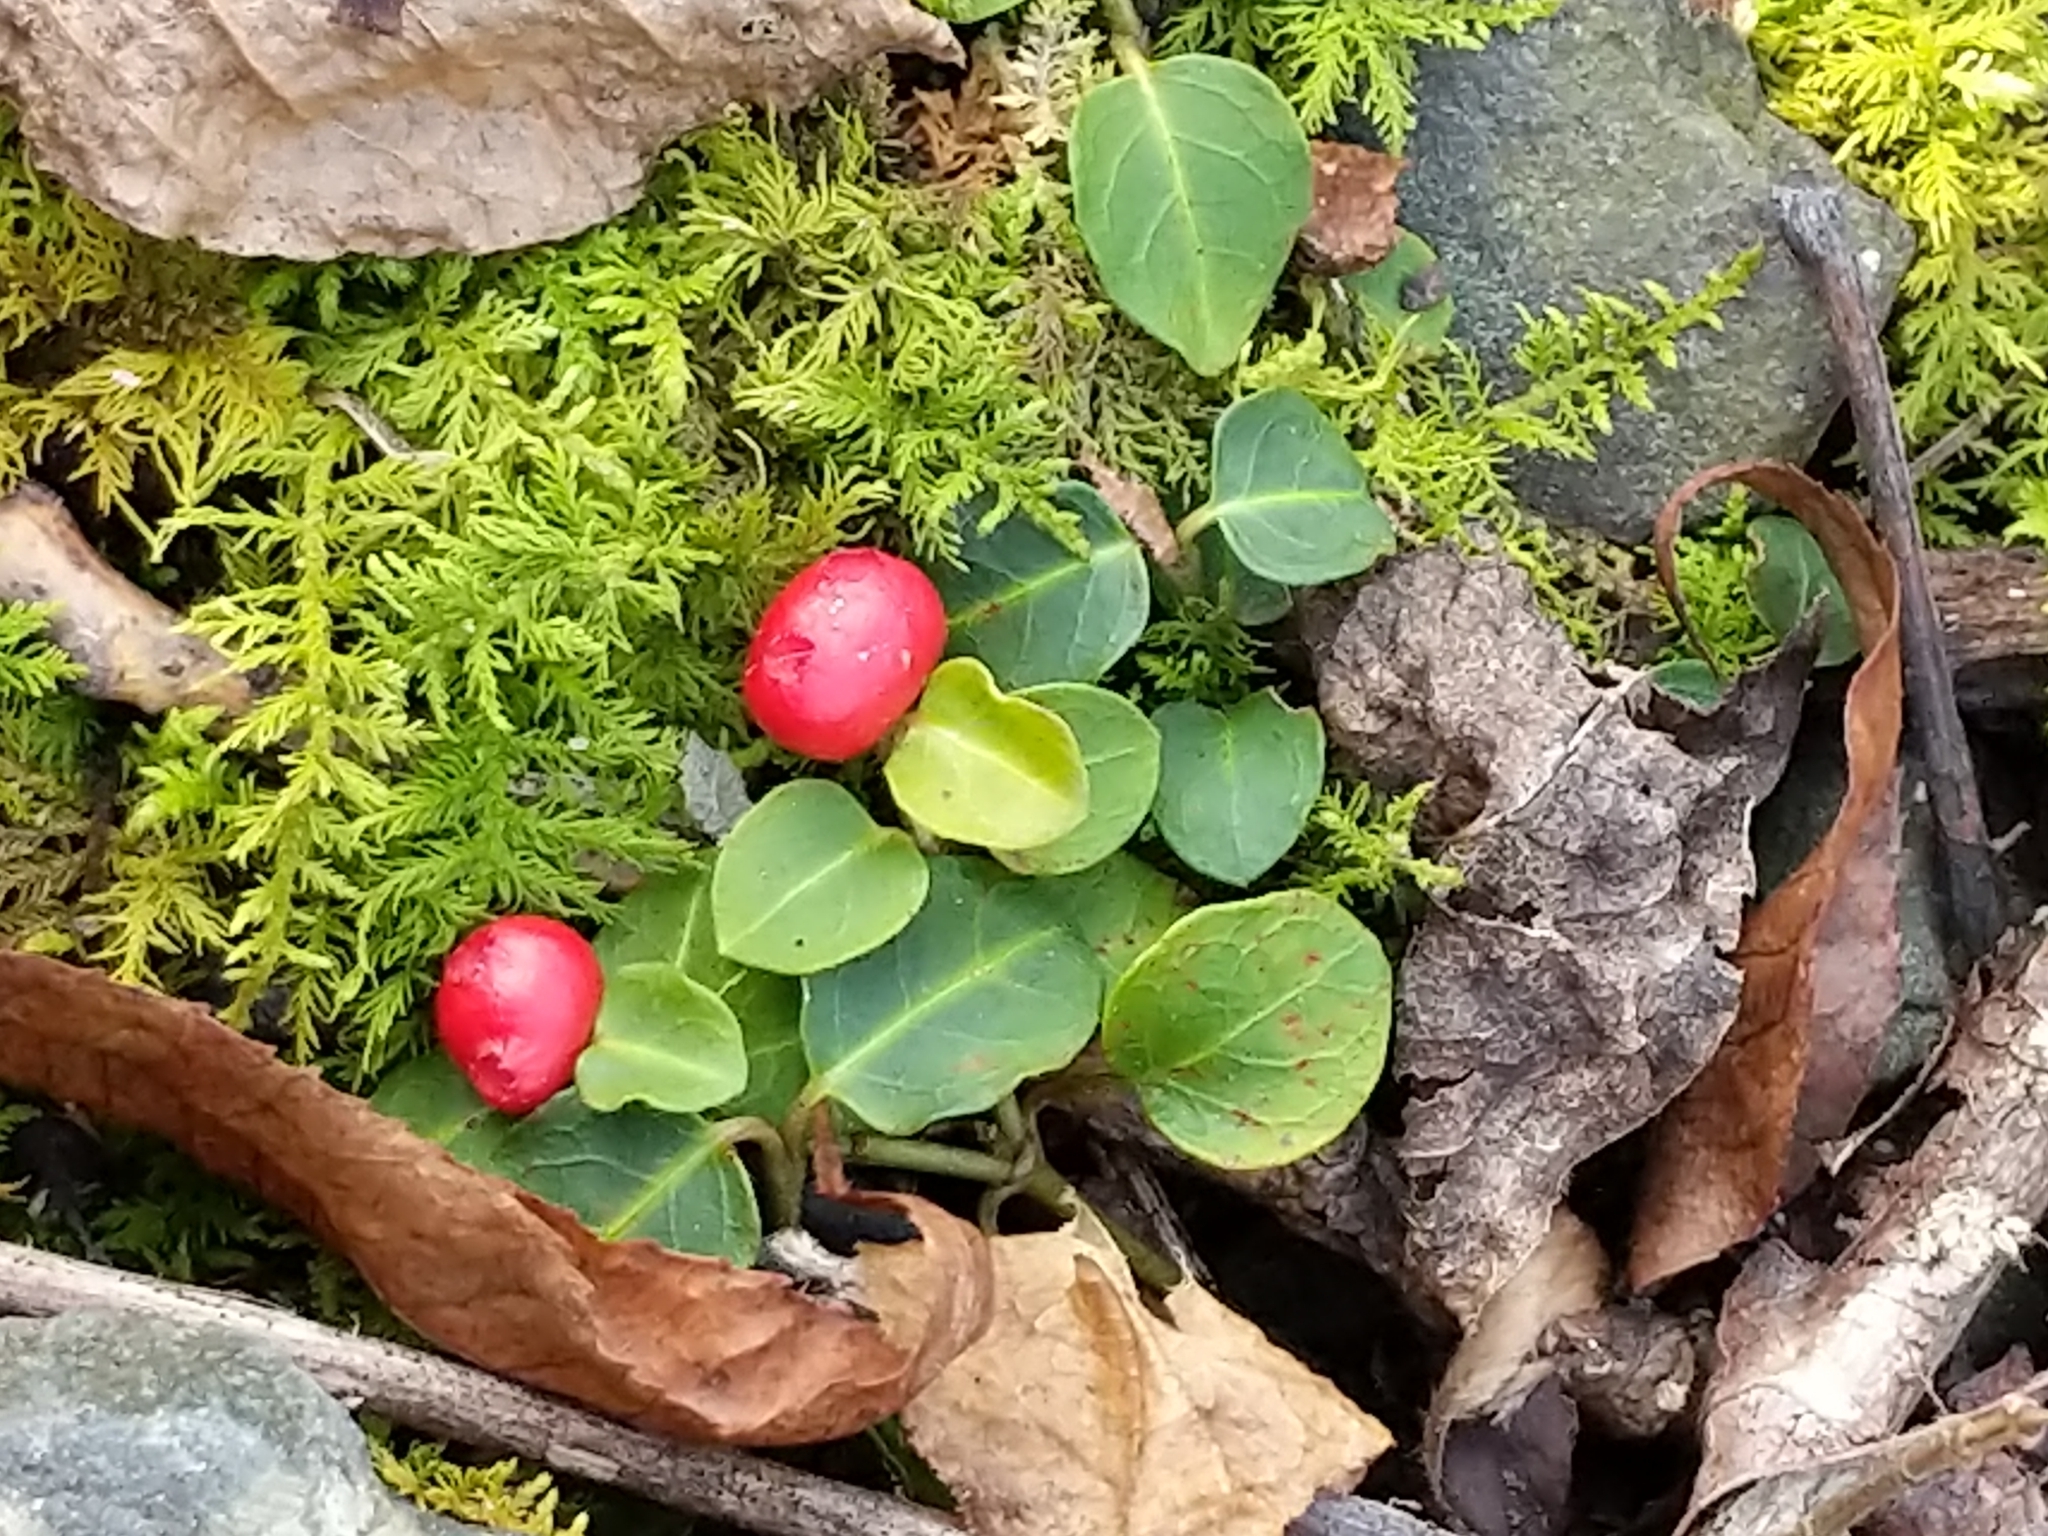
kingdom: Plantae
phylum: Tracheophyta
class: Magnoliopsida
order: Gentianales
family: Rubiaceae
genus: Mitchella
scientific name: Mitchella repens
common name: Partridge-berry
